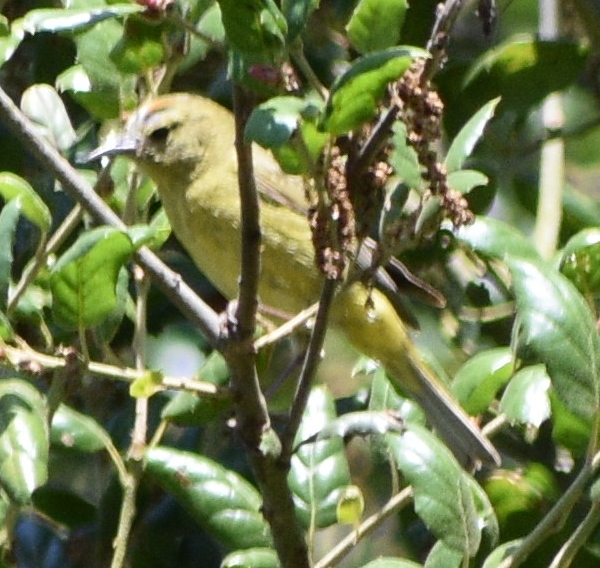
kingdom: Animalia
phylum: Chordata
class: Aves
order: Passeriformes
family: Parulidae
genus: Leiothlypis
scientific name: Leiothlypis celata
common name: Orange-crowned warbler
